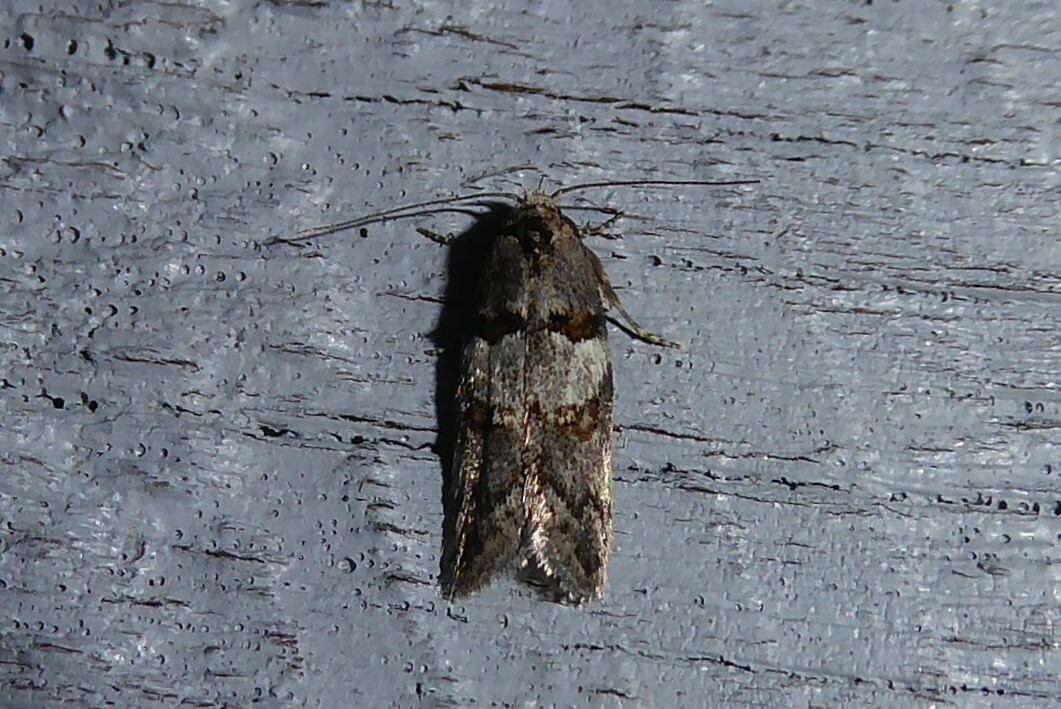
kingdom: Animalia
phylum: Arthropoda
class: Insecta
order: Lepidoptera
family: Oecophoridae
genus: Trachypepla
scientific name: Trachypepla contritella
